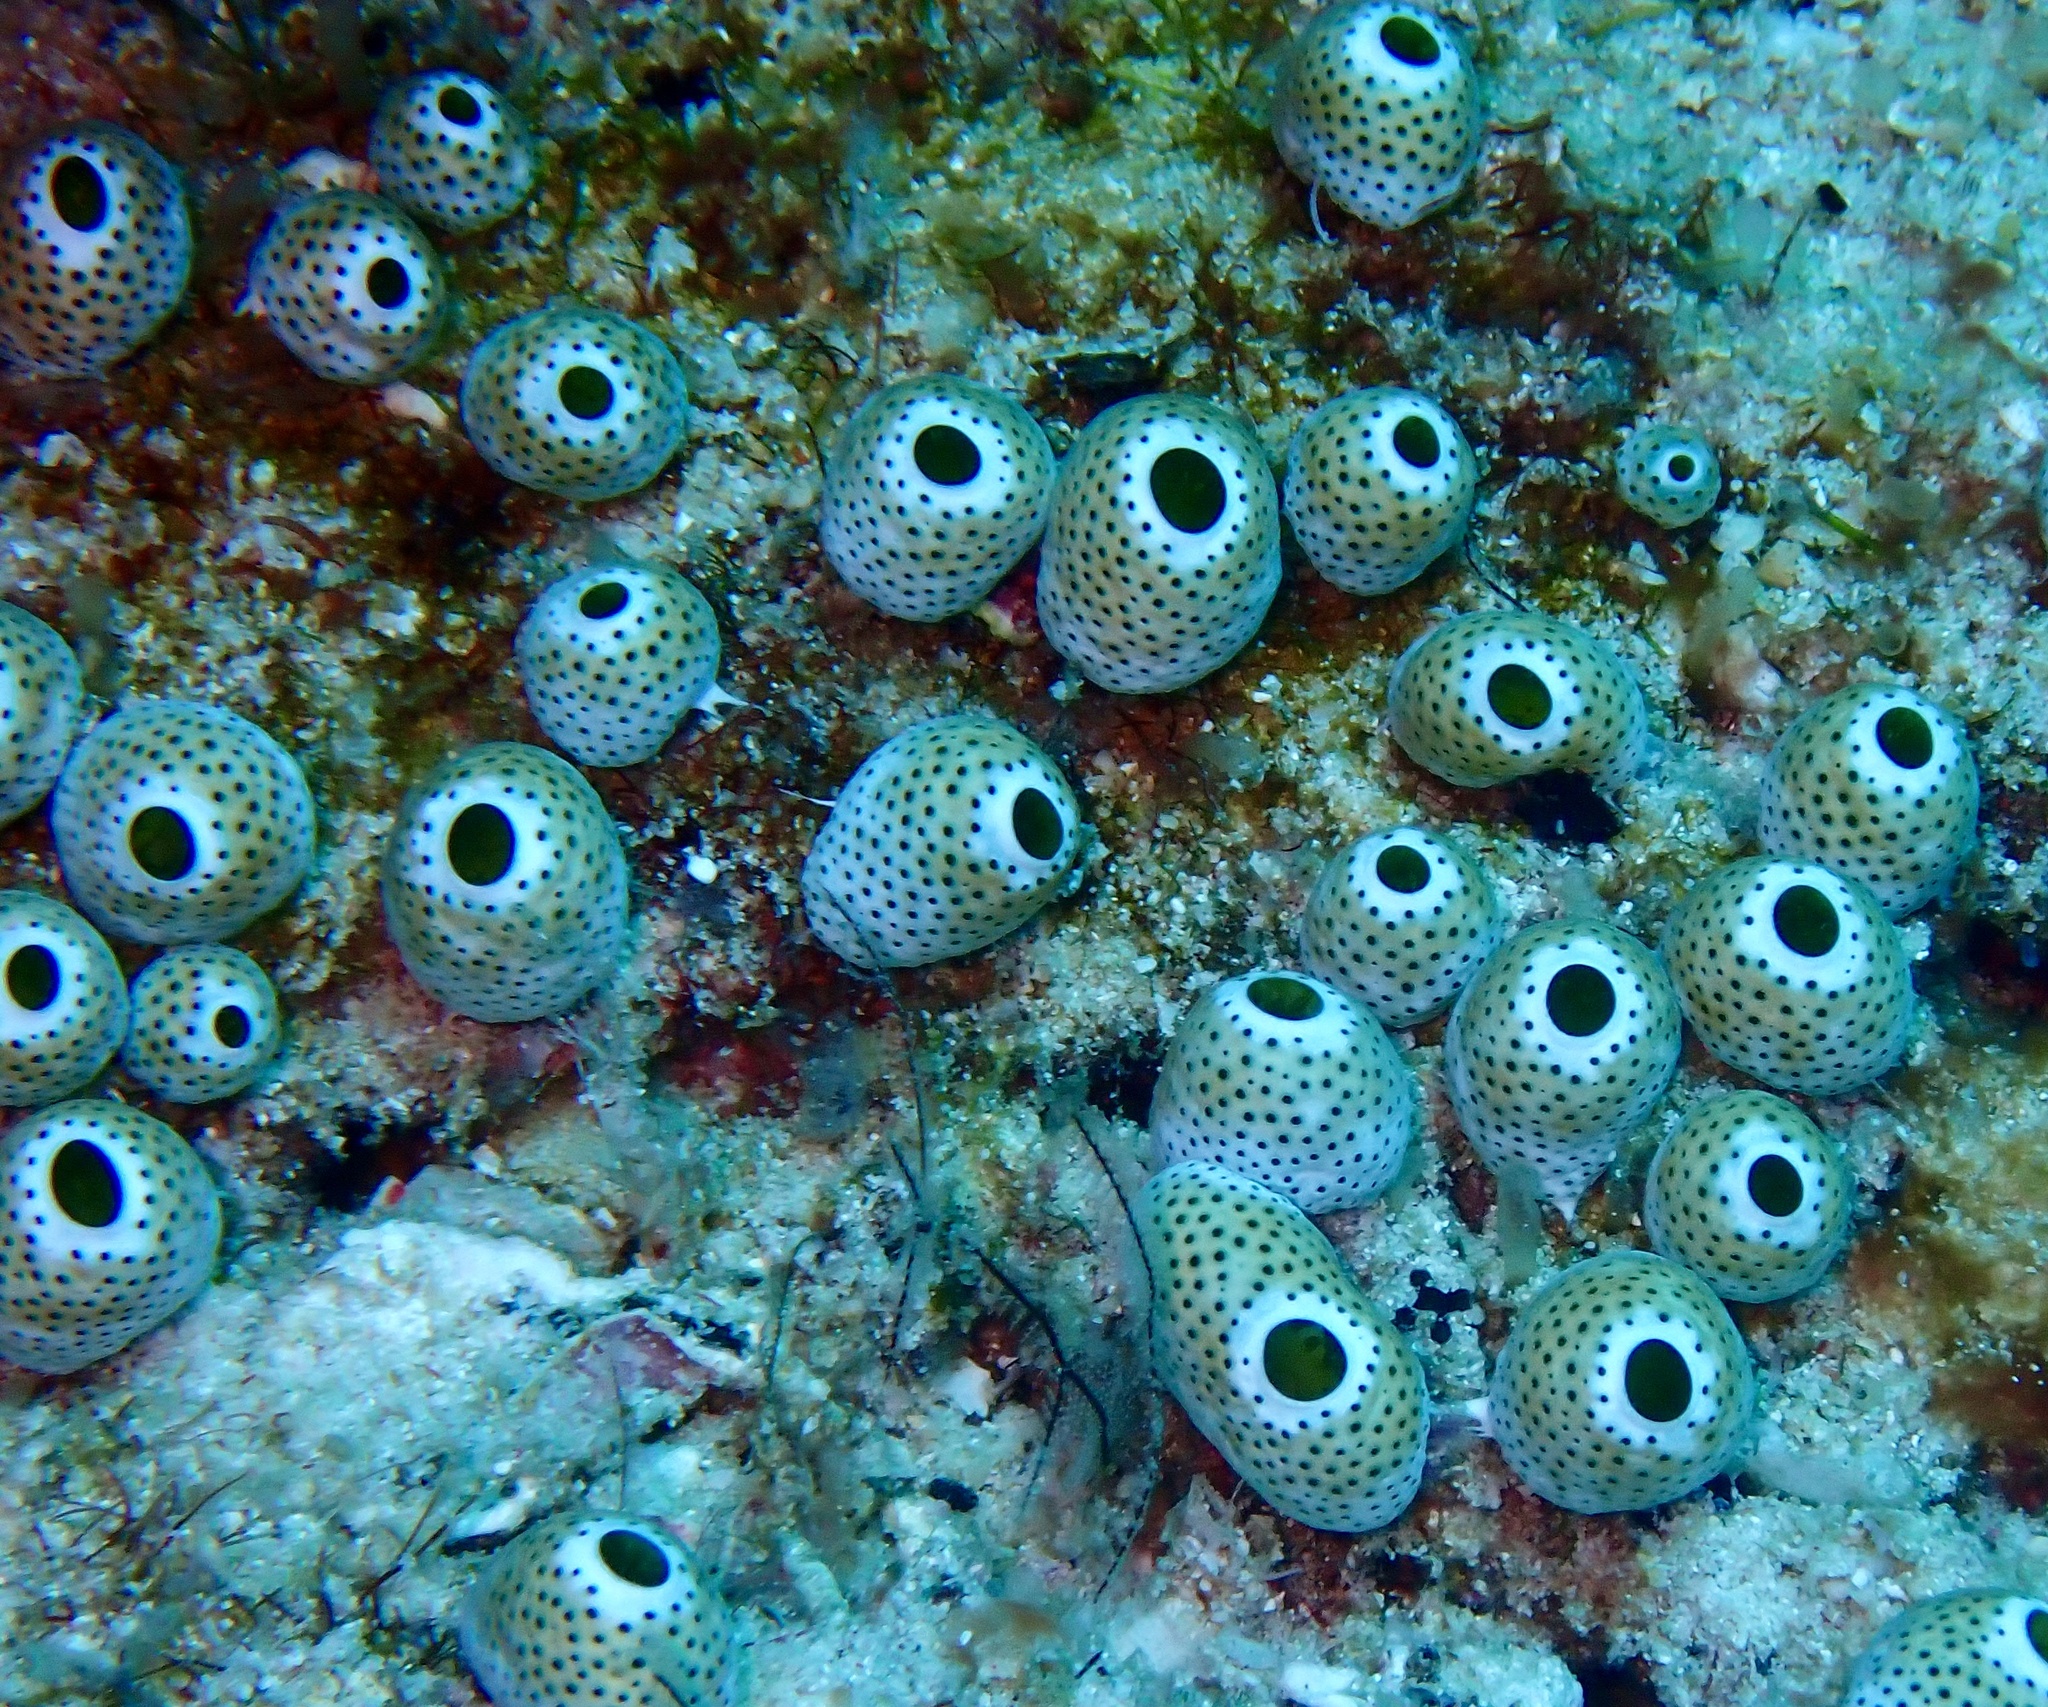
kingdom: Animalia
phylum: Chordata
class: Ascidiacea
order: Aplousobranchia
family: Didemnidae
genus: Didemnum
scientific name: Didemnum molle
